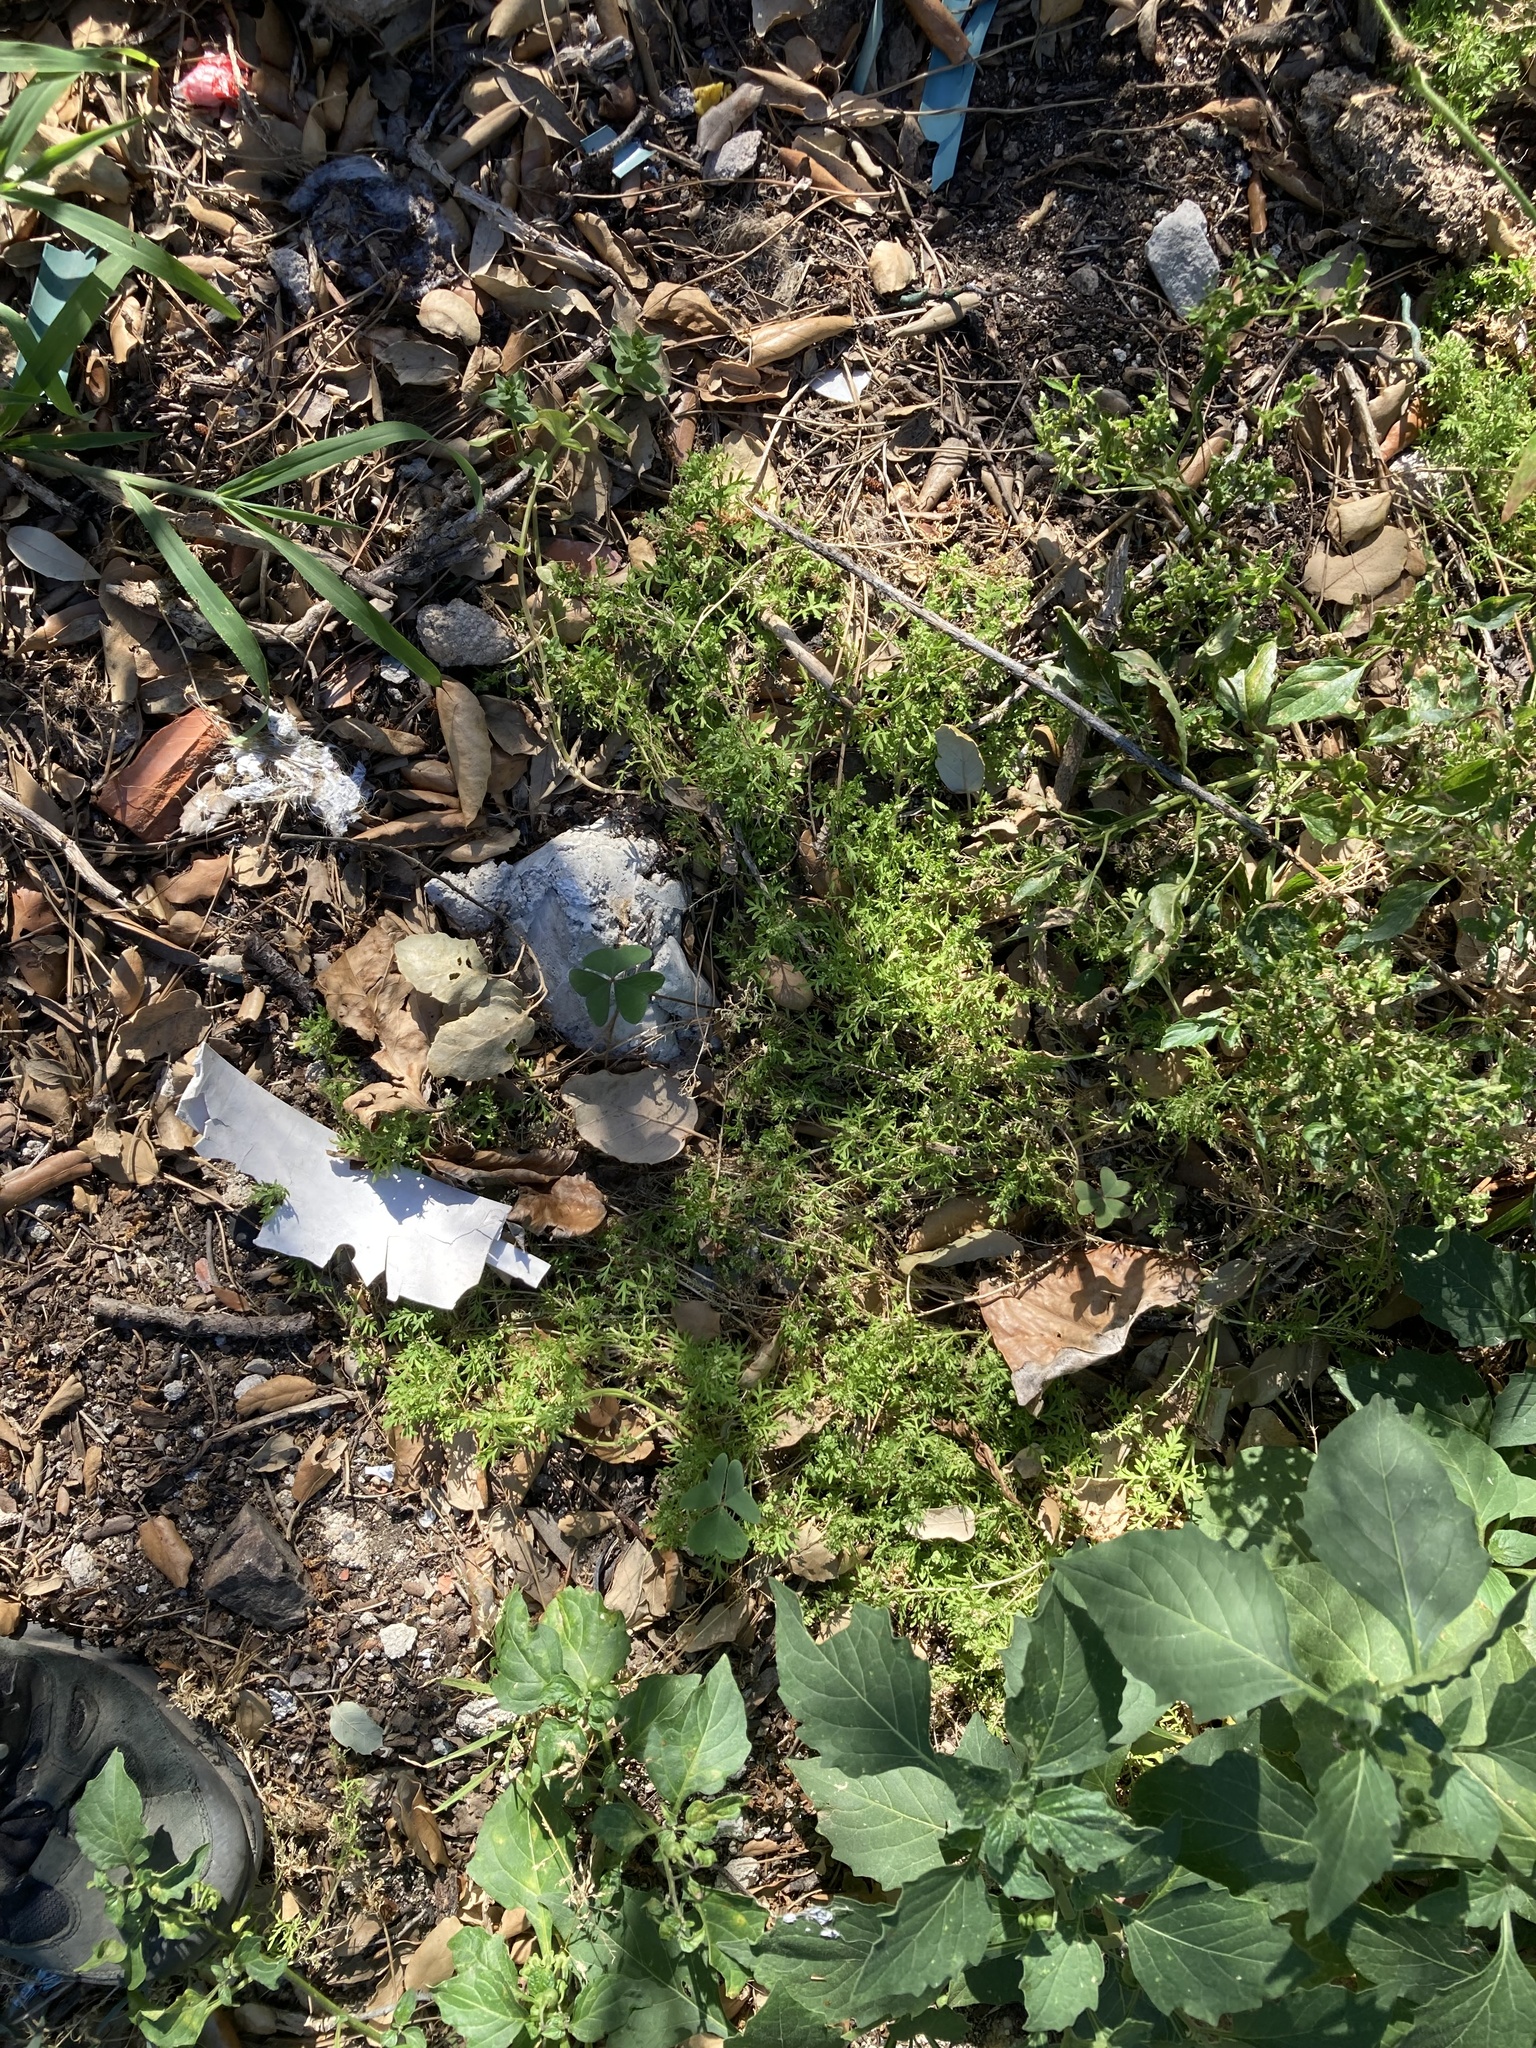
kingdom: Plantae
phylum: Tracheophyta
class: Magnoliopsida
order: Brassicales
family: Brassicaceae
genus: Lepidium
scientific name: Lepidium didymum
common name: Lesser swinecress
